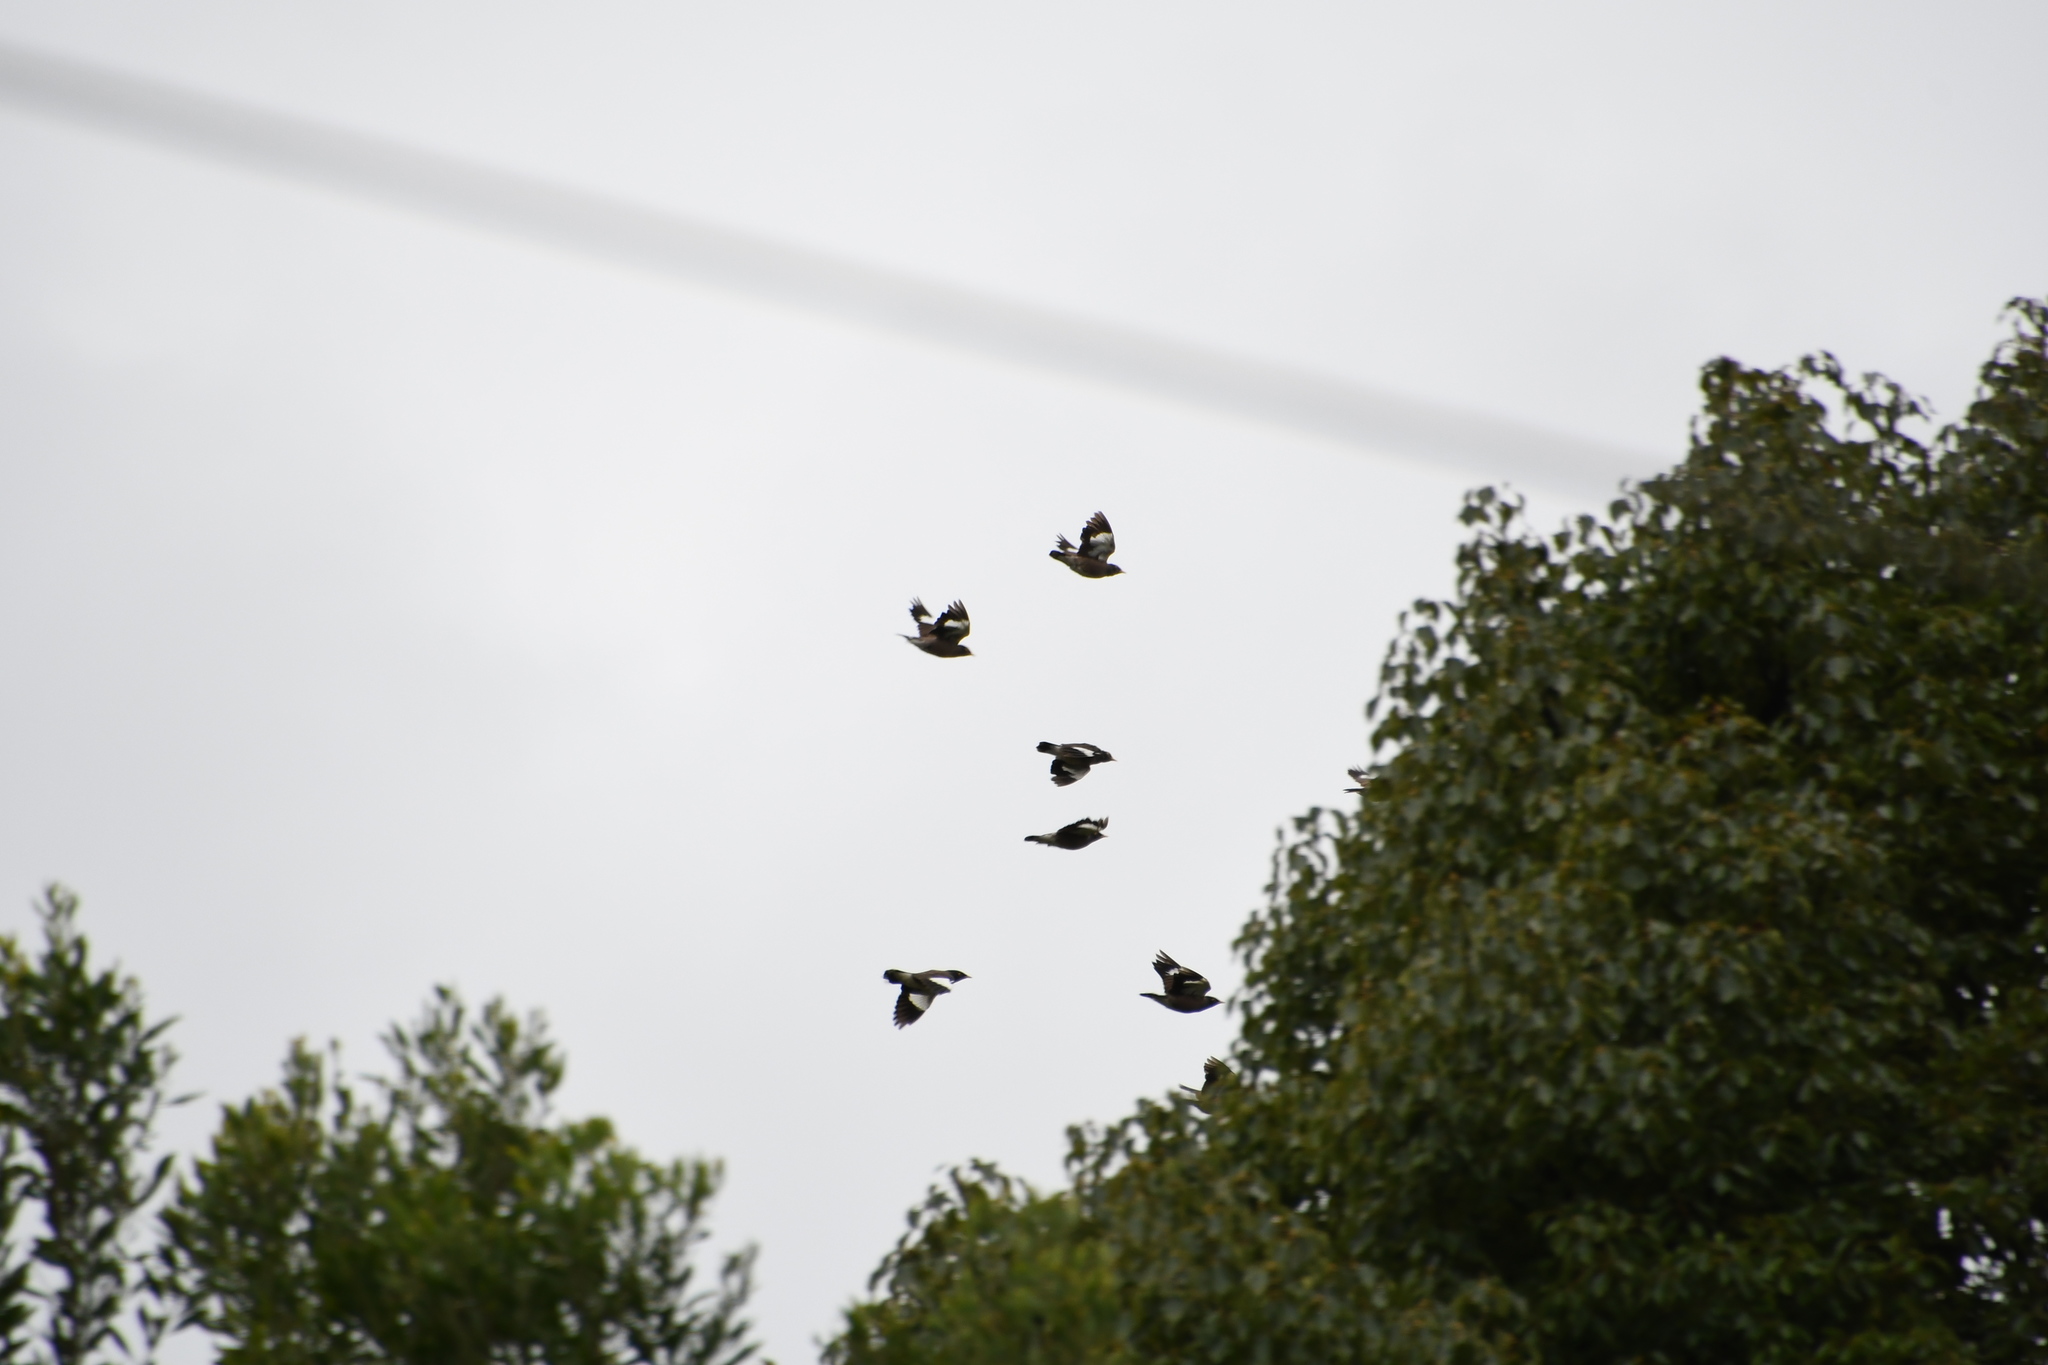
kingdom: Animalia
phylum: Chordata
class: Aves
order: Passeriformes
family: Sturnidae
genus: Acridotheres
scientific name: Acridotheres tristis
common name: Common myna
